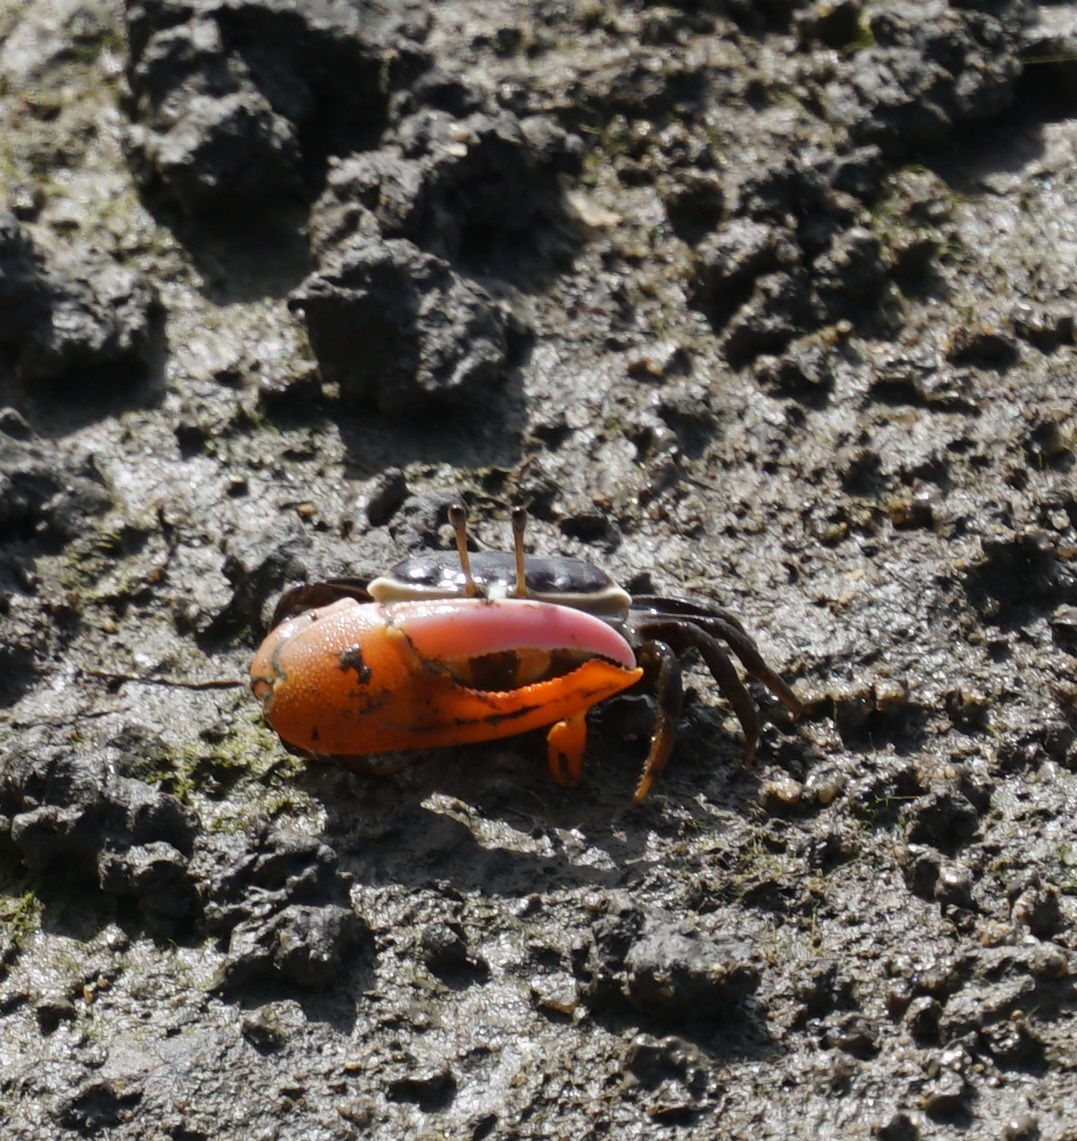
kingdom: Animalia
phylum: Arthropoda
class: Malacostraca
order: Decapoda
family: Ocypodidae
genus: Gelasimus
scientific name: Gelasimus vomeris
